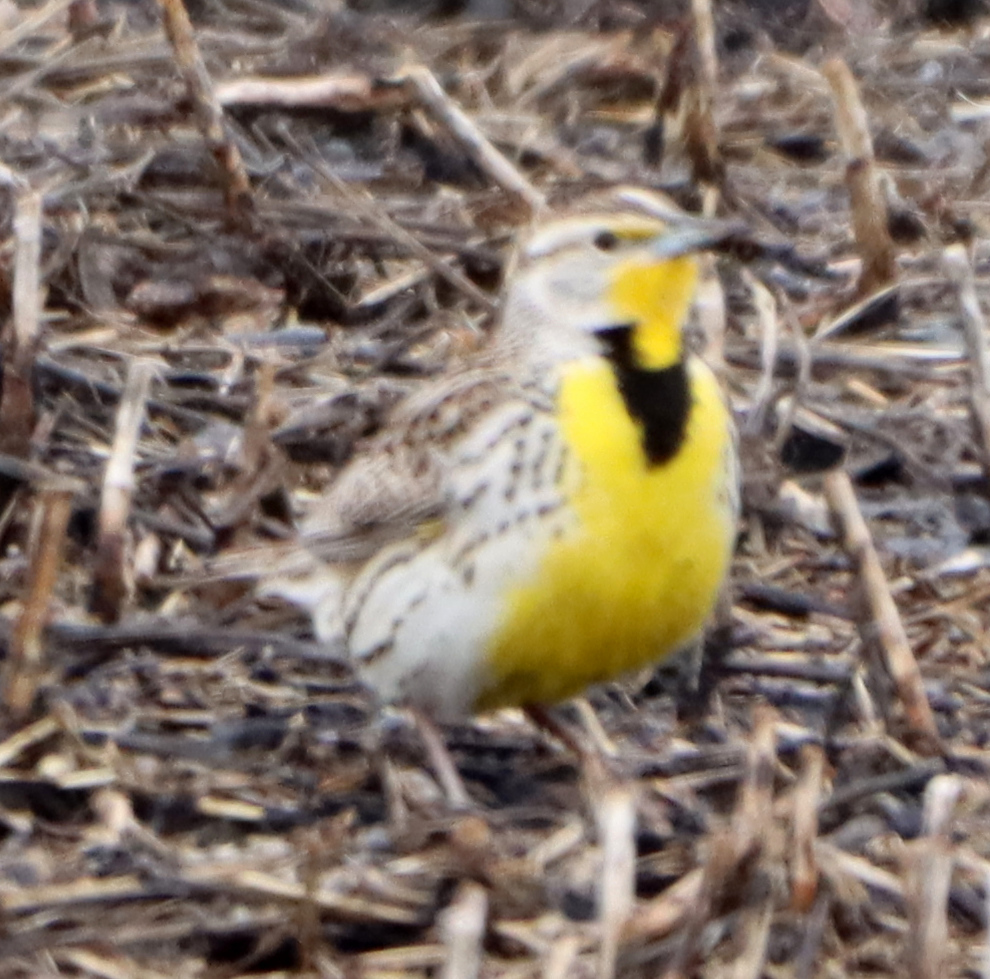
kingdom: Animalia
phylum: Chordata
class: Aves
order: Passeriformes
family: Icteridae
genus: Sturnella
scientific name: Sturnella neglecta
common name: Western meadowlark
